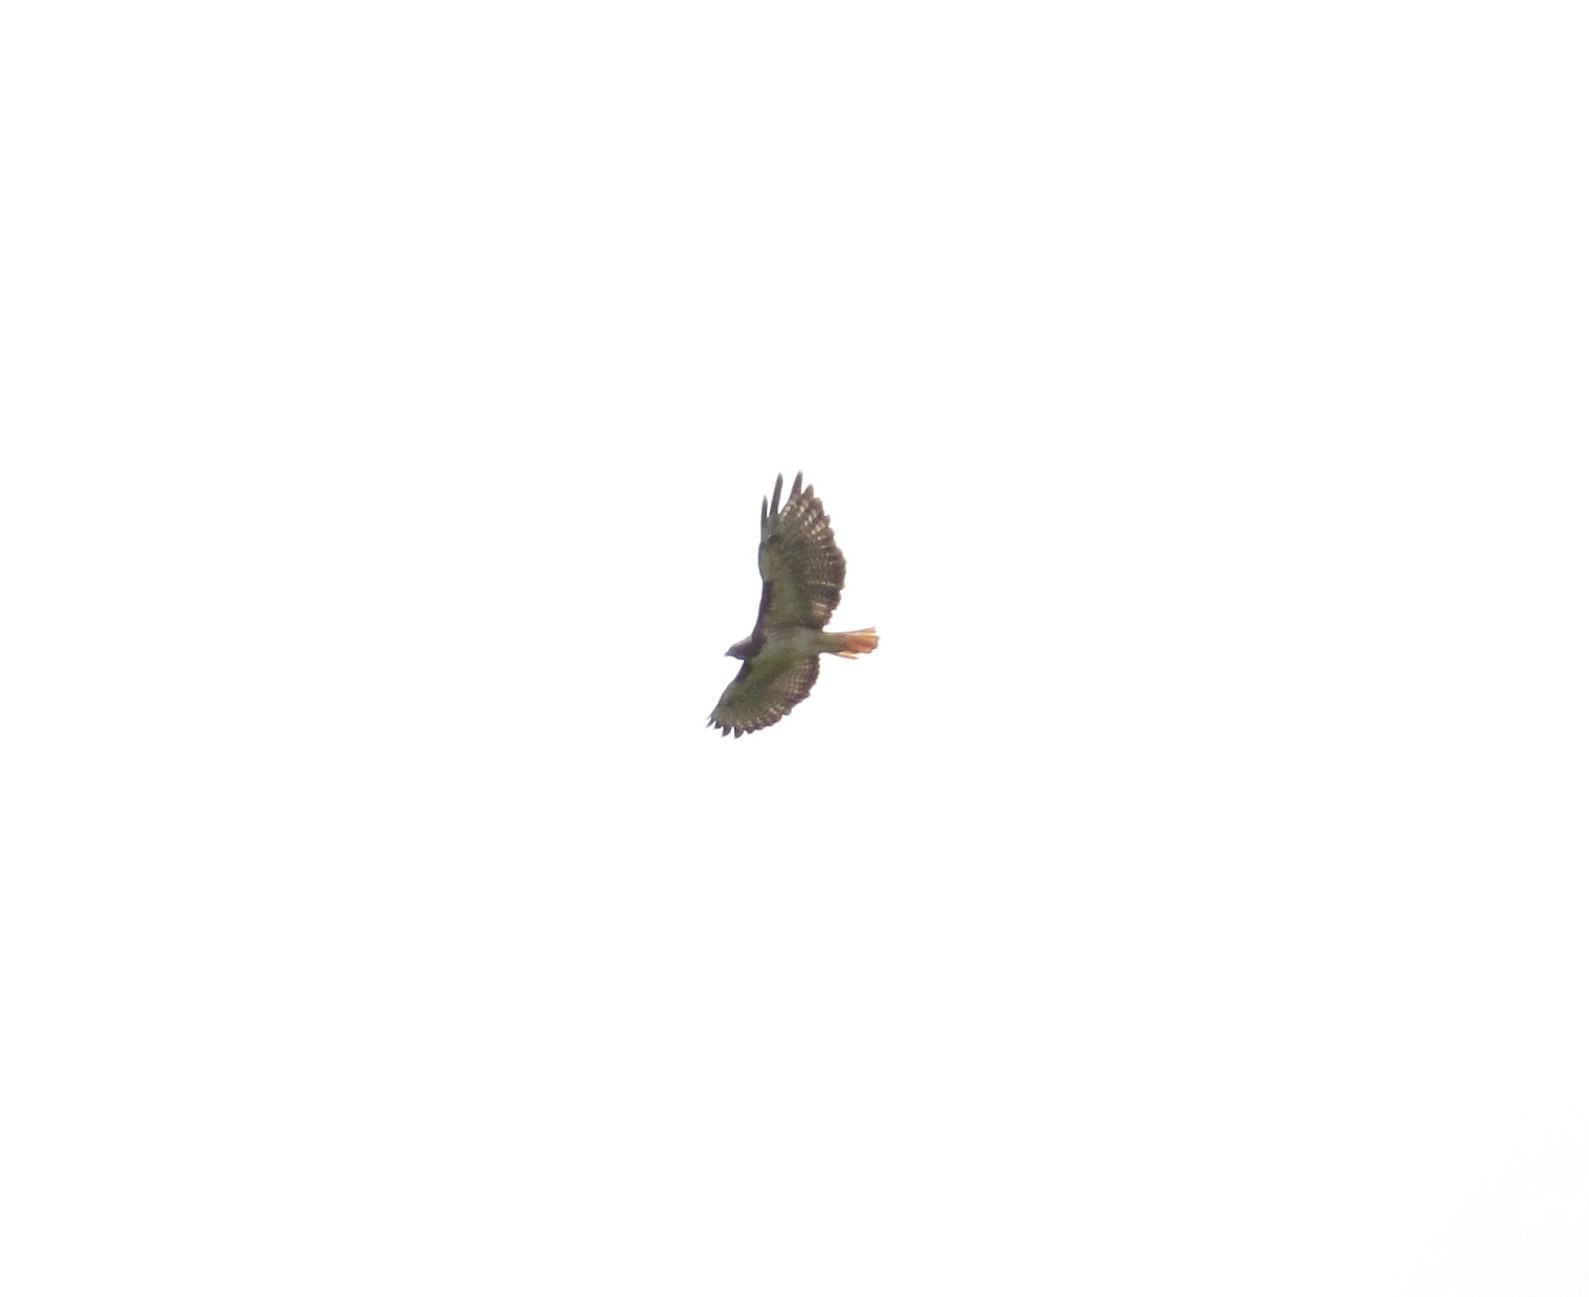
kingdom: Animalia
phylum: Chordata
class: Aves
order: Accipitriformes
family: Accipitridae
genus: Buteo
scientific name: Buteo jamaicensis
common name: Red-tailed hawk
